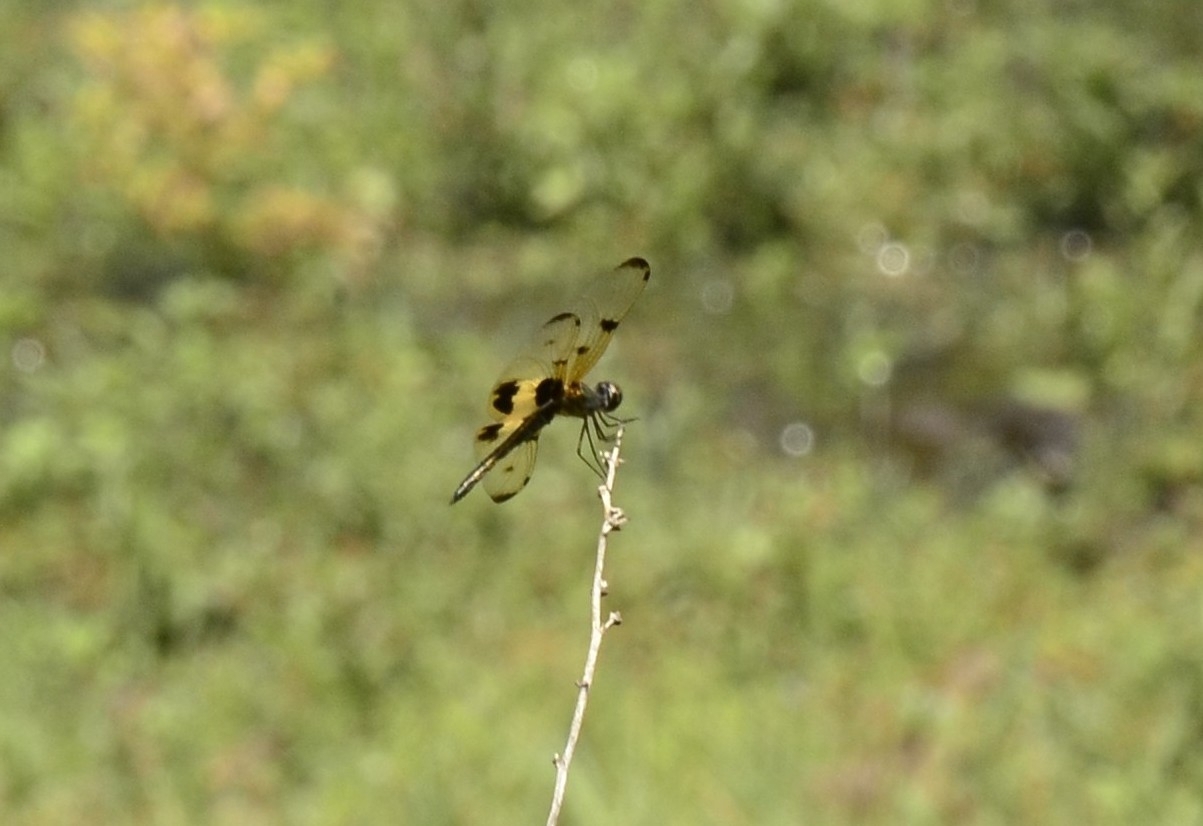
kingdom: Animalia
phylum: Arthropoda
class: Insecta
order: Odonata
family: Libellulidae
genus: Rhyothemis
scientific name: Rhyothemis variegata
